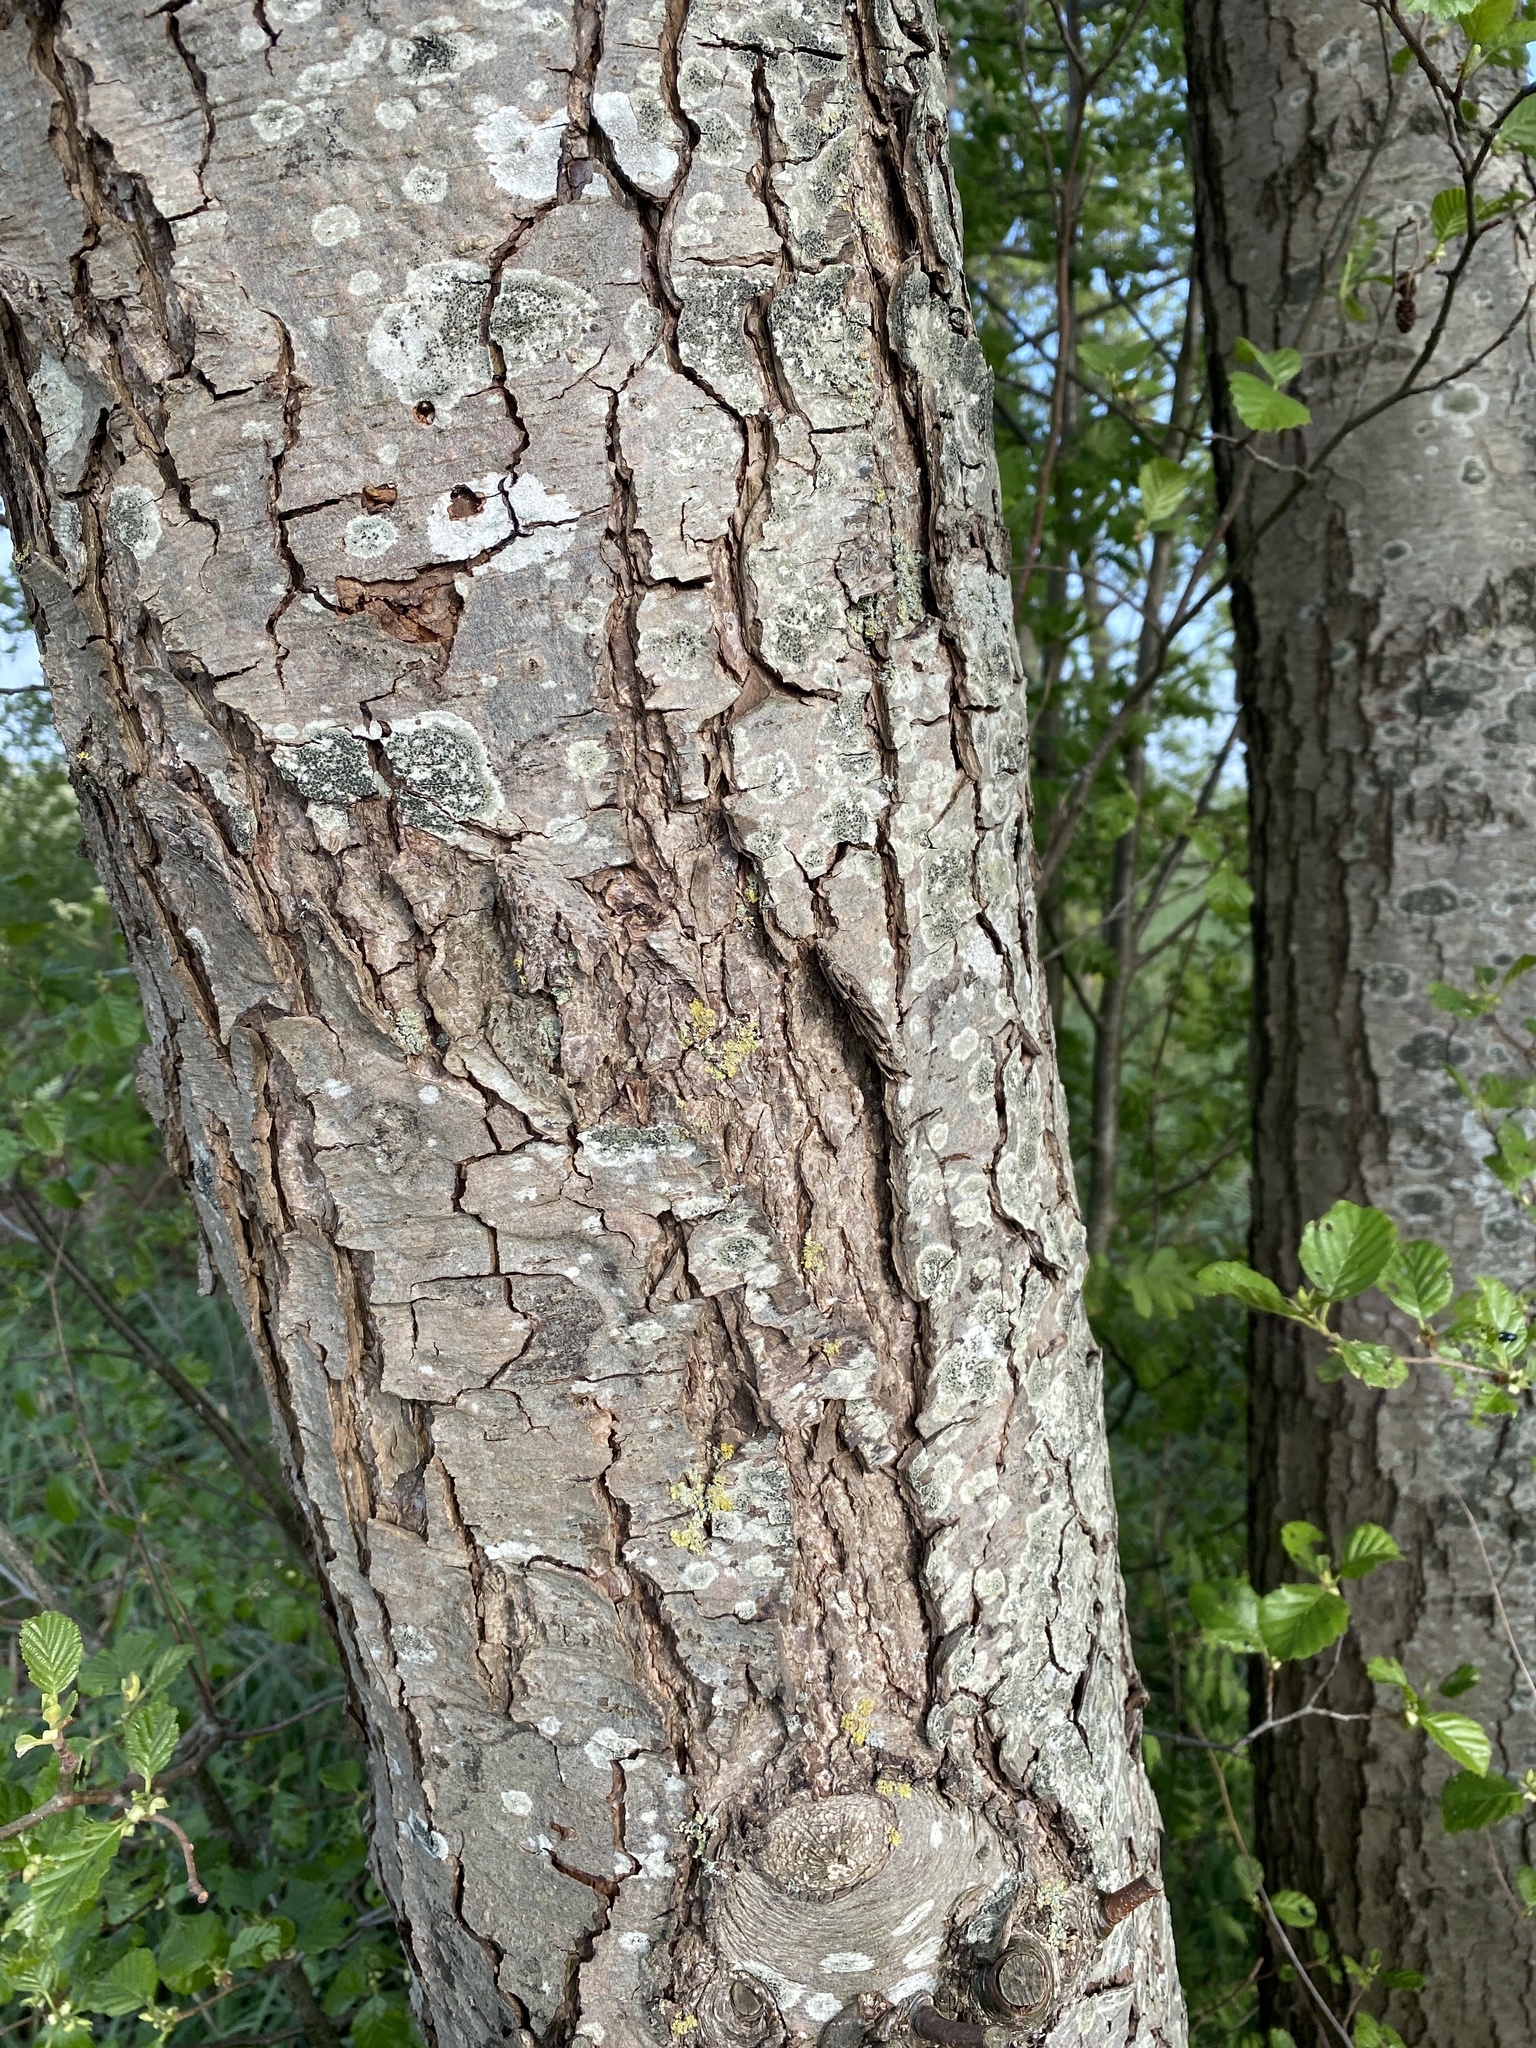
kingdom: Plantae
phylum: Tracheophyta
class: Magnoliopsida
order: Fagales
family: Betulaceae
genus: Alnus
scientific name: Alnus glutinosa
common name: Black alder
